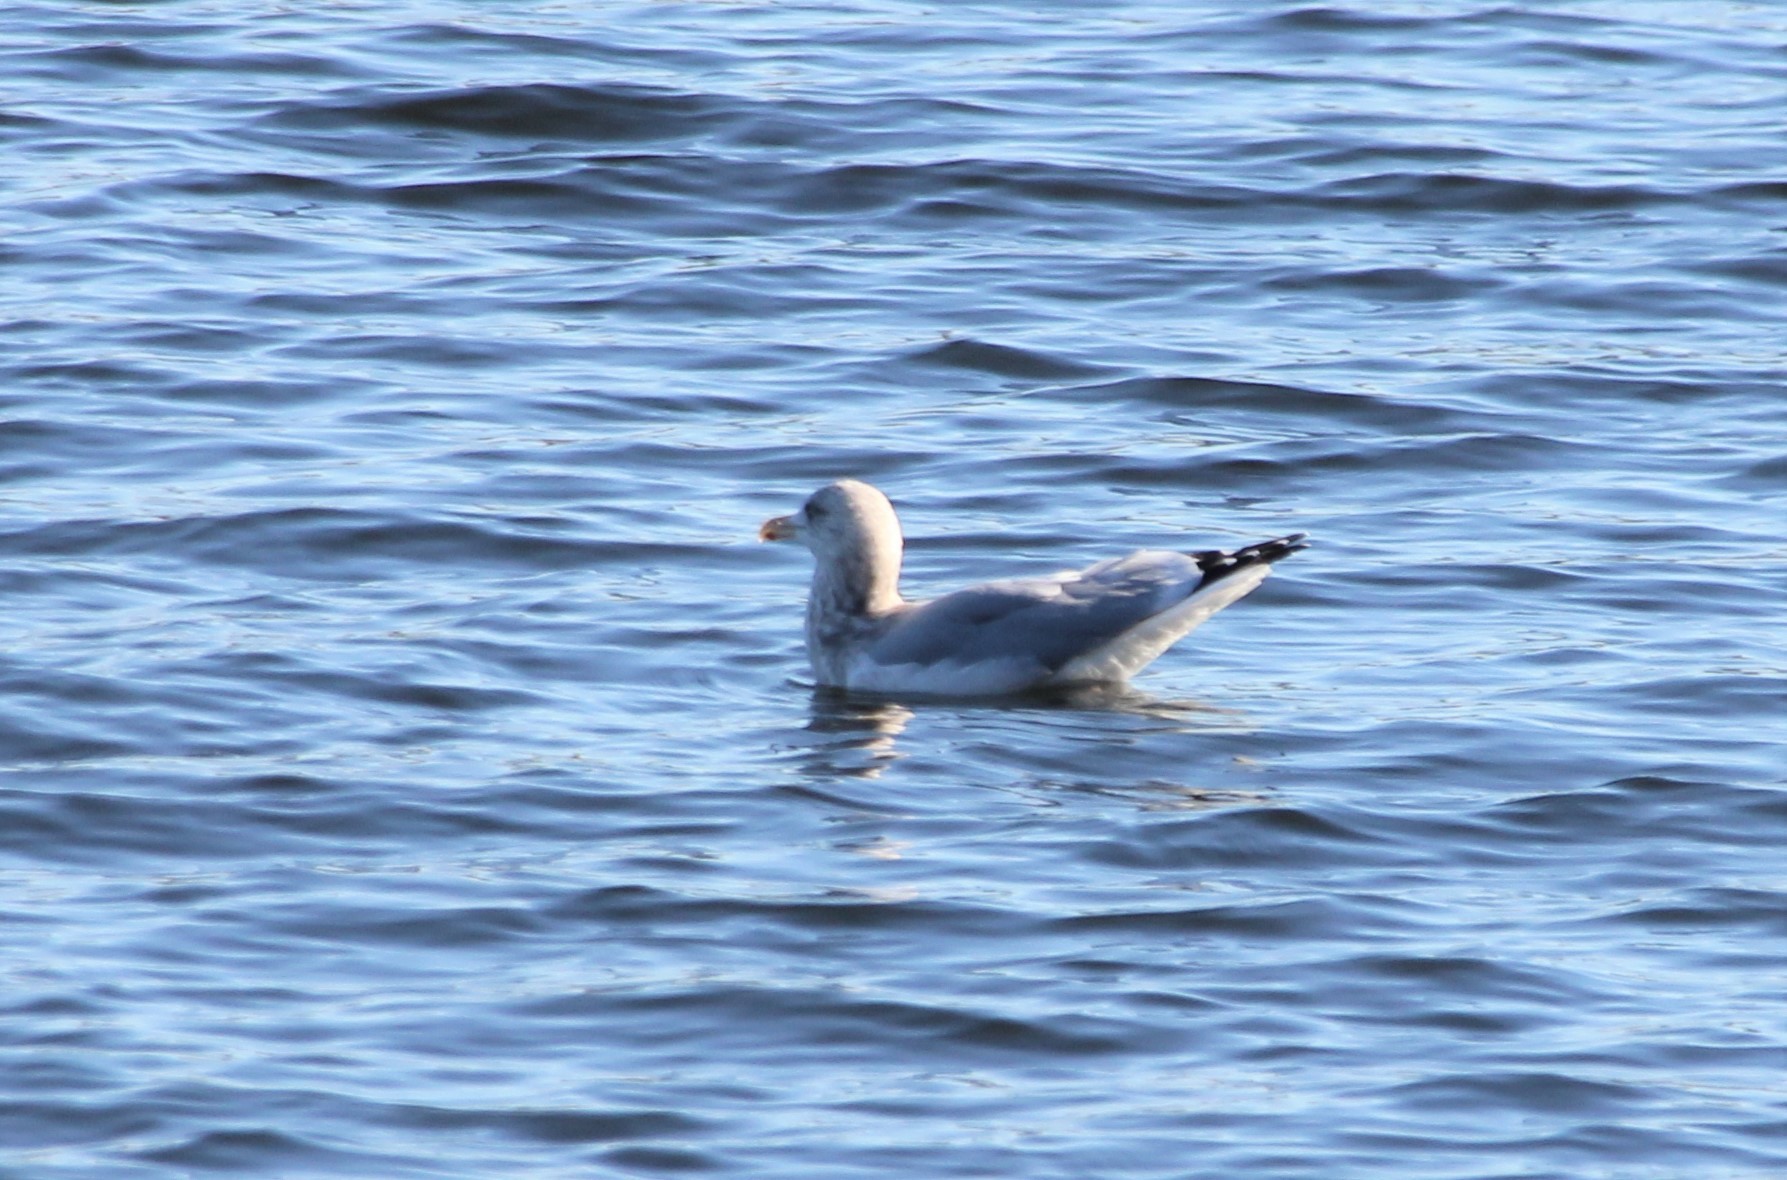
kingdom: Animalia
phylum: Chordata
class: Aves
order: Charadriiformes
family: Laridae
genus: Larus
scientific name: Larus argentatus
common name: Herring gull
